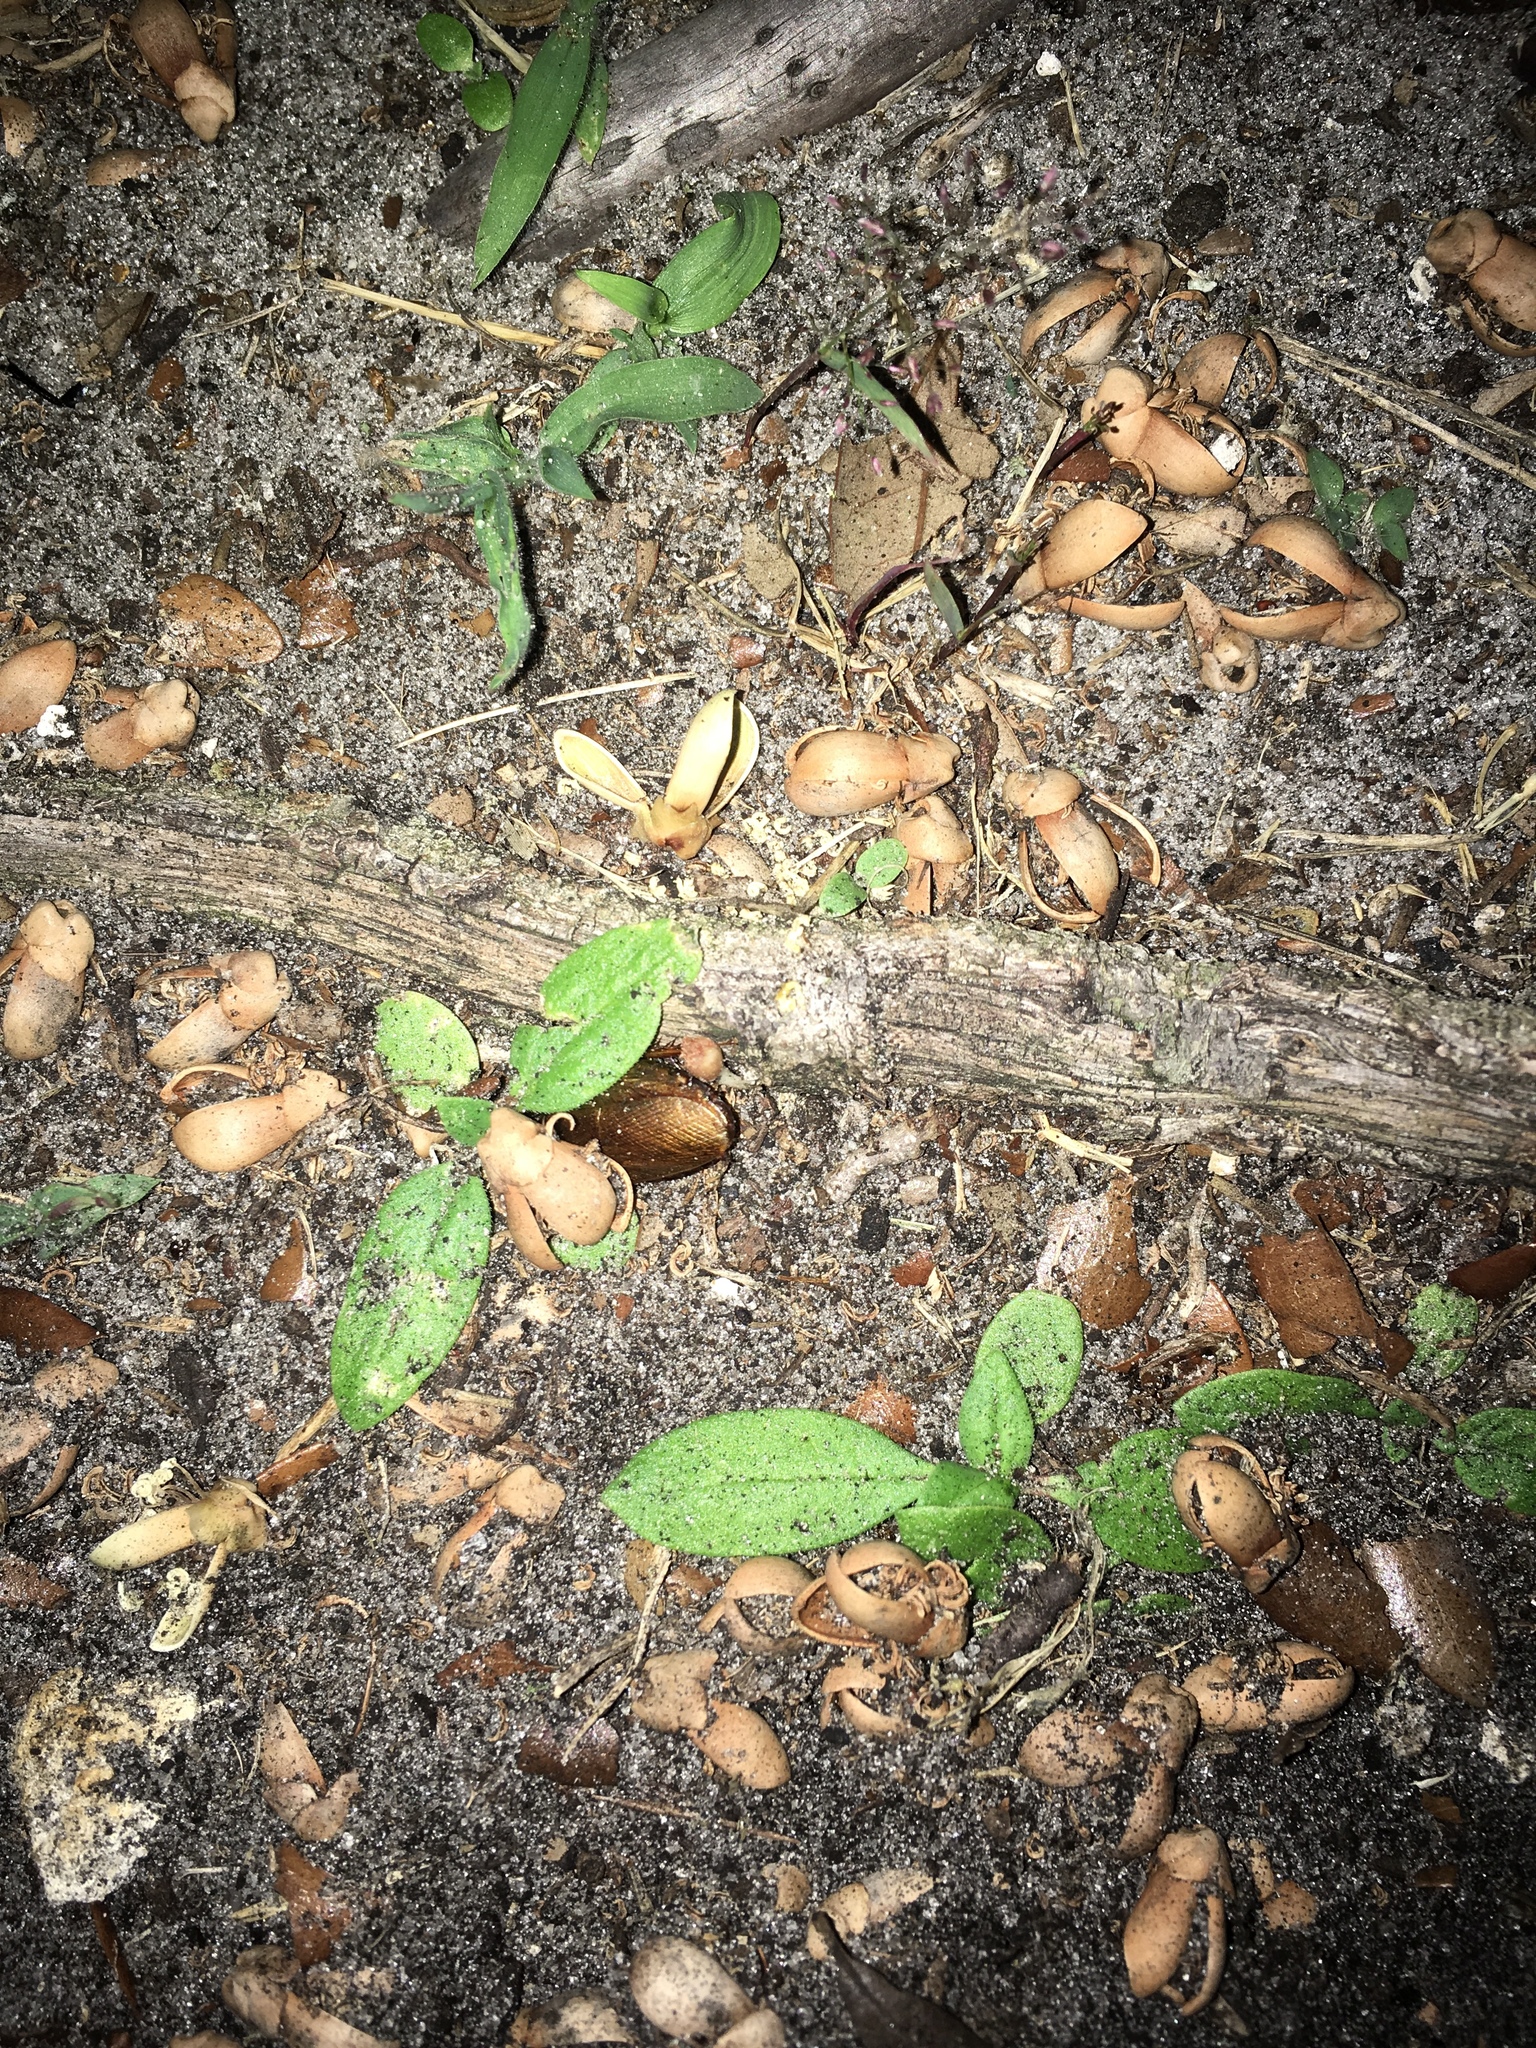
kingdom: Animalia
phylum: Arthropoda
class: Insecta
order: Blattodea
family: Blaberidae
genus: Pycnoscelus
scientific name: Pycnoscelus surinamensis
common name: Surinam cockroach
